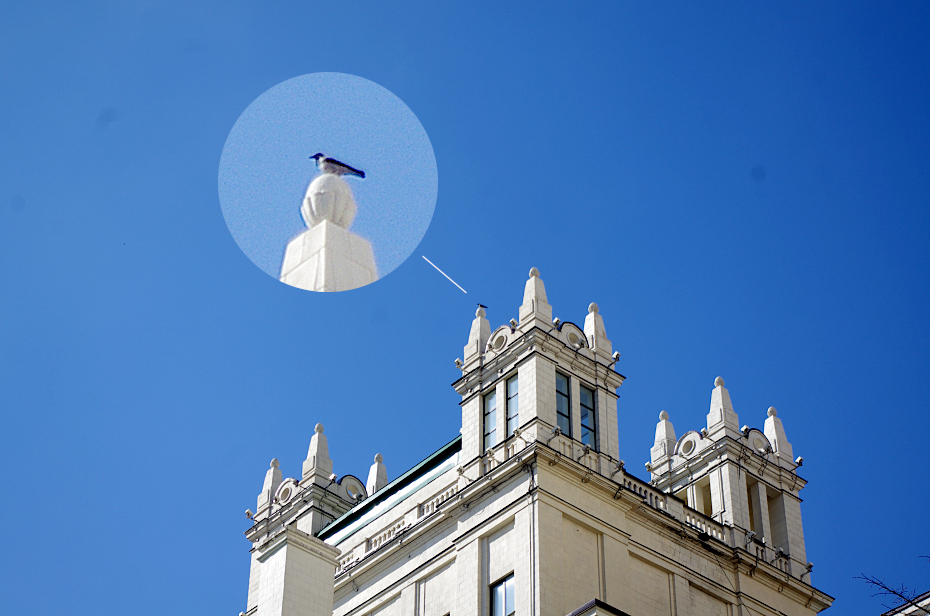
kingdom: Animalia
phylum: Chordata
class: Aves
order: Passeriformes
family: Corvidae
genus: Corvus
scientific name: Corvus cornix
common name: Hooded crow
